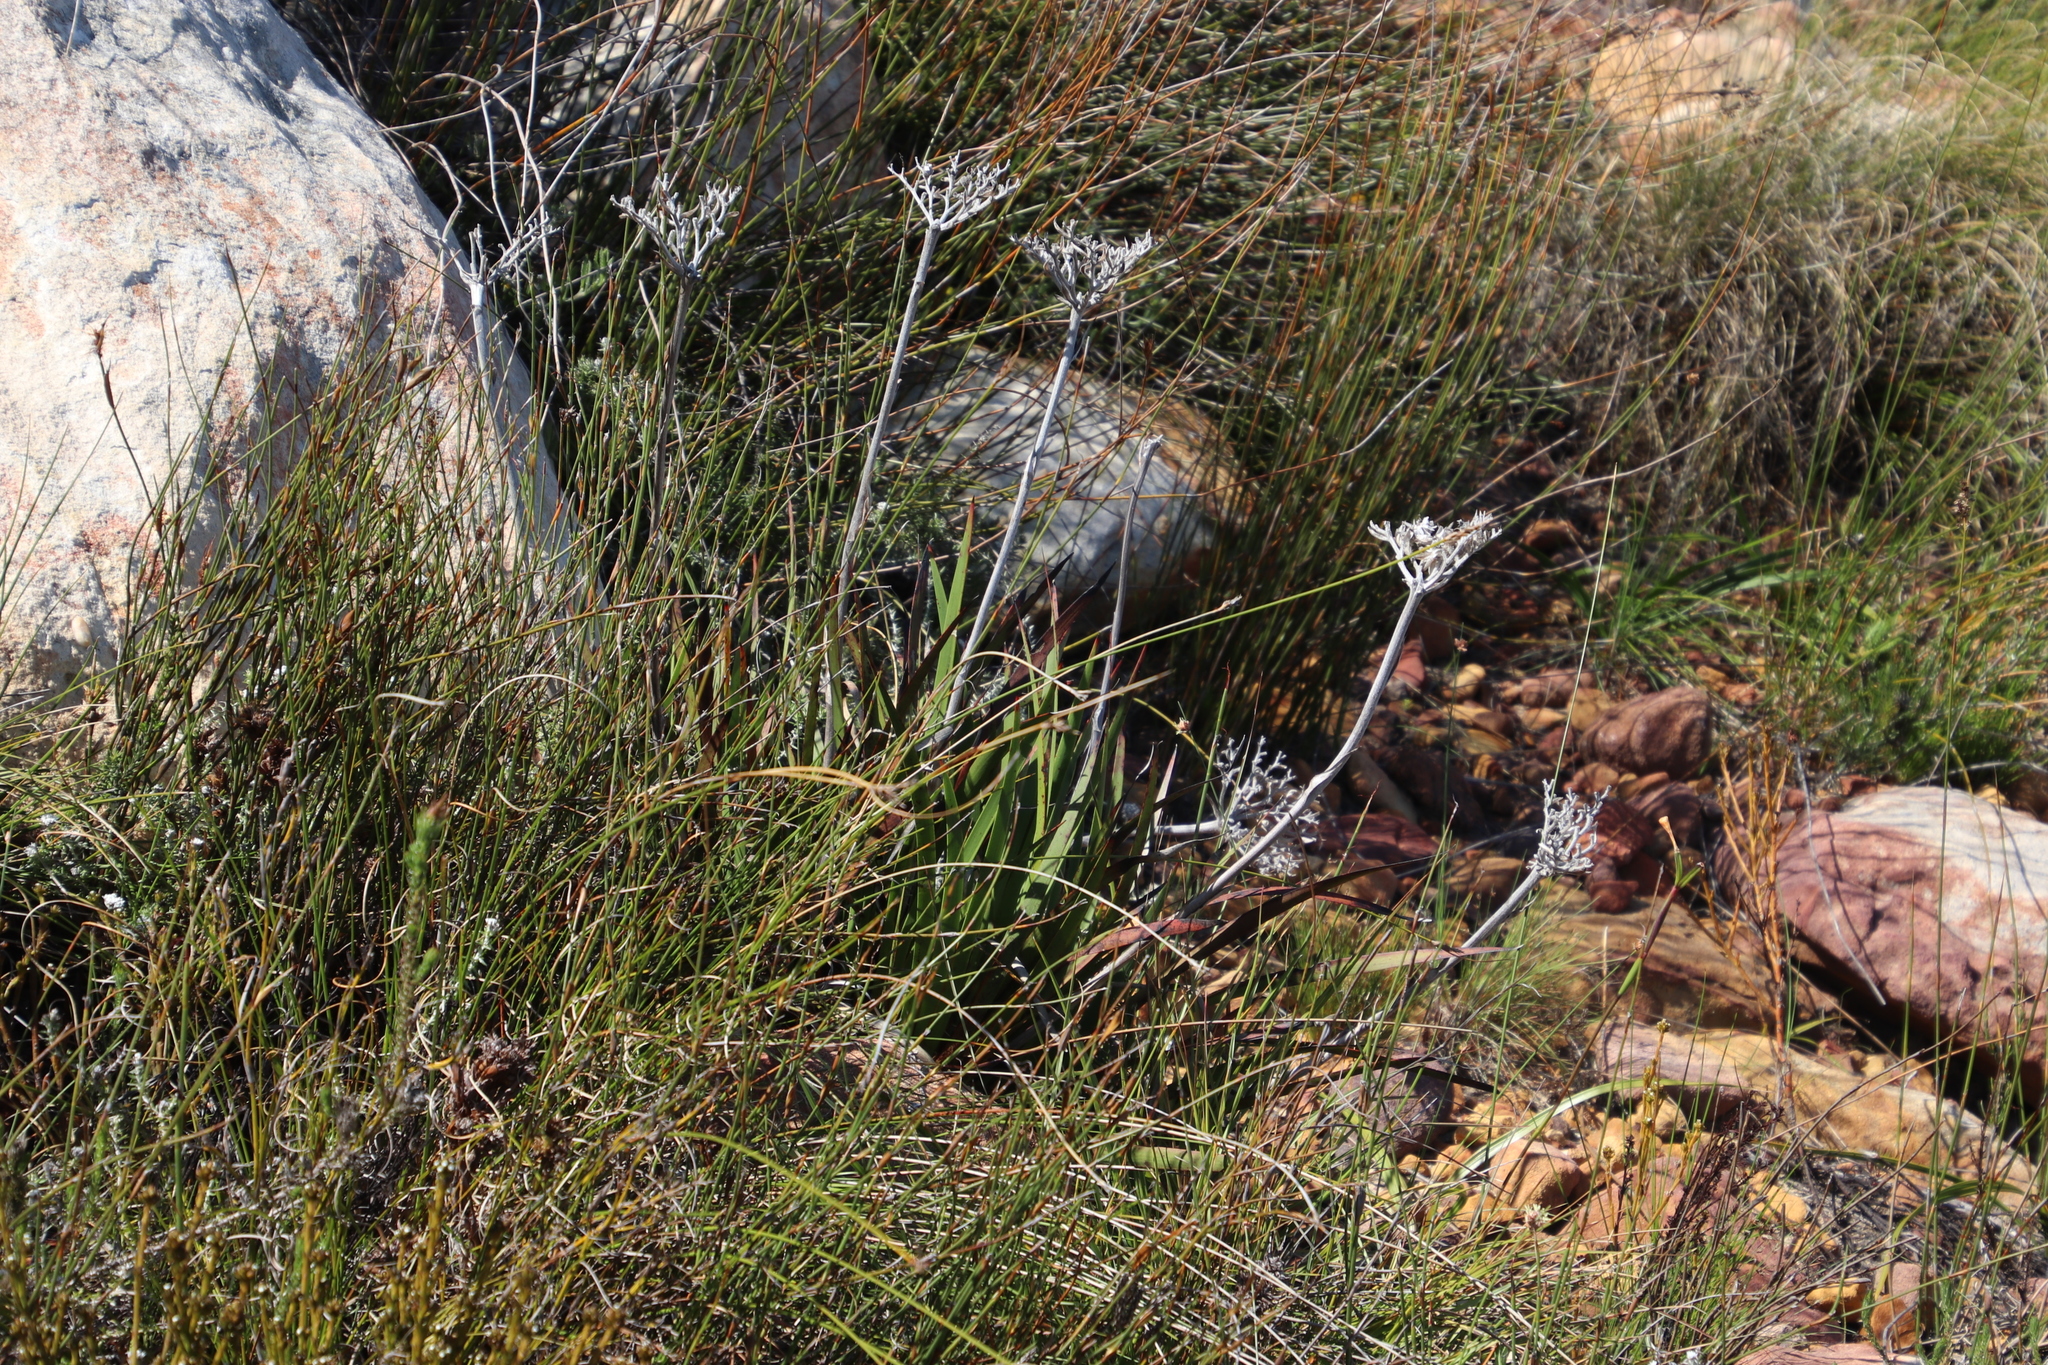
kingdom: Plantae
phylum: Tracheophyta
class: Liliopsida
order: Commelinales
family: Haemodoraceae
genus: Dilatris
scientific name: Dilatris corymbosa
